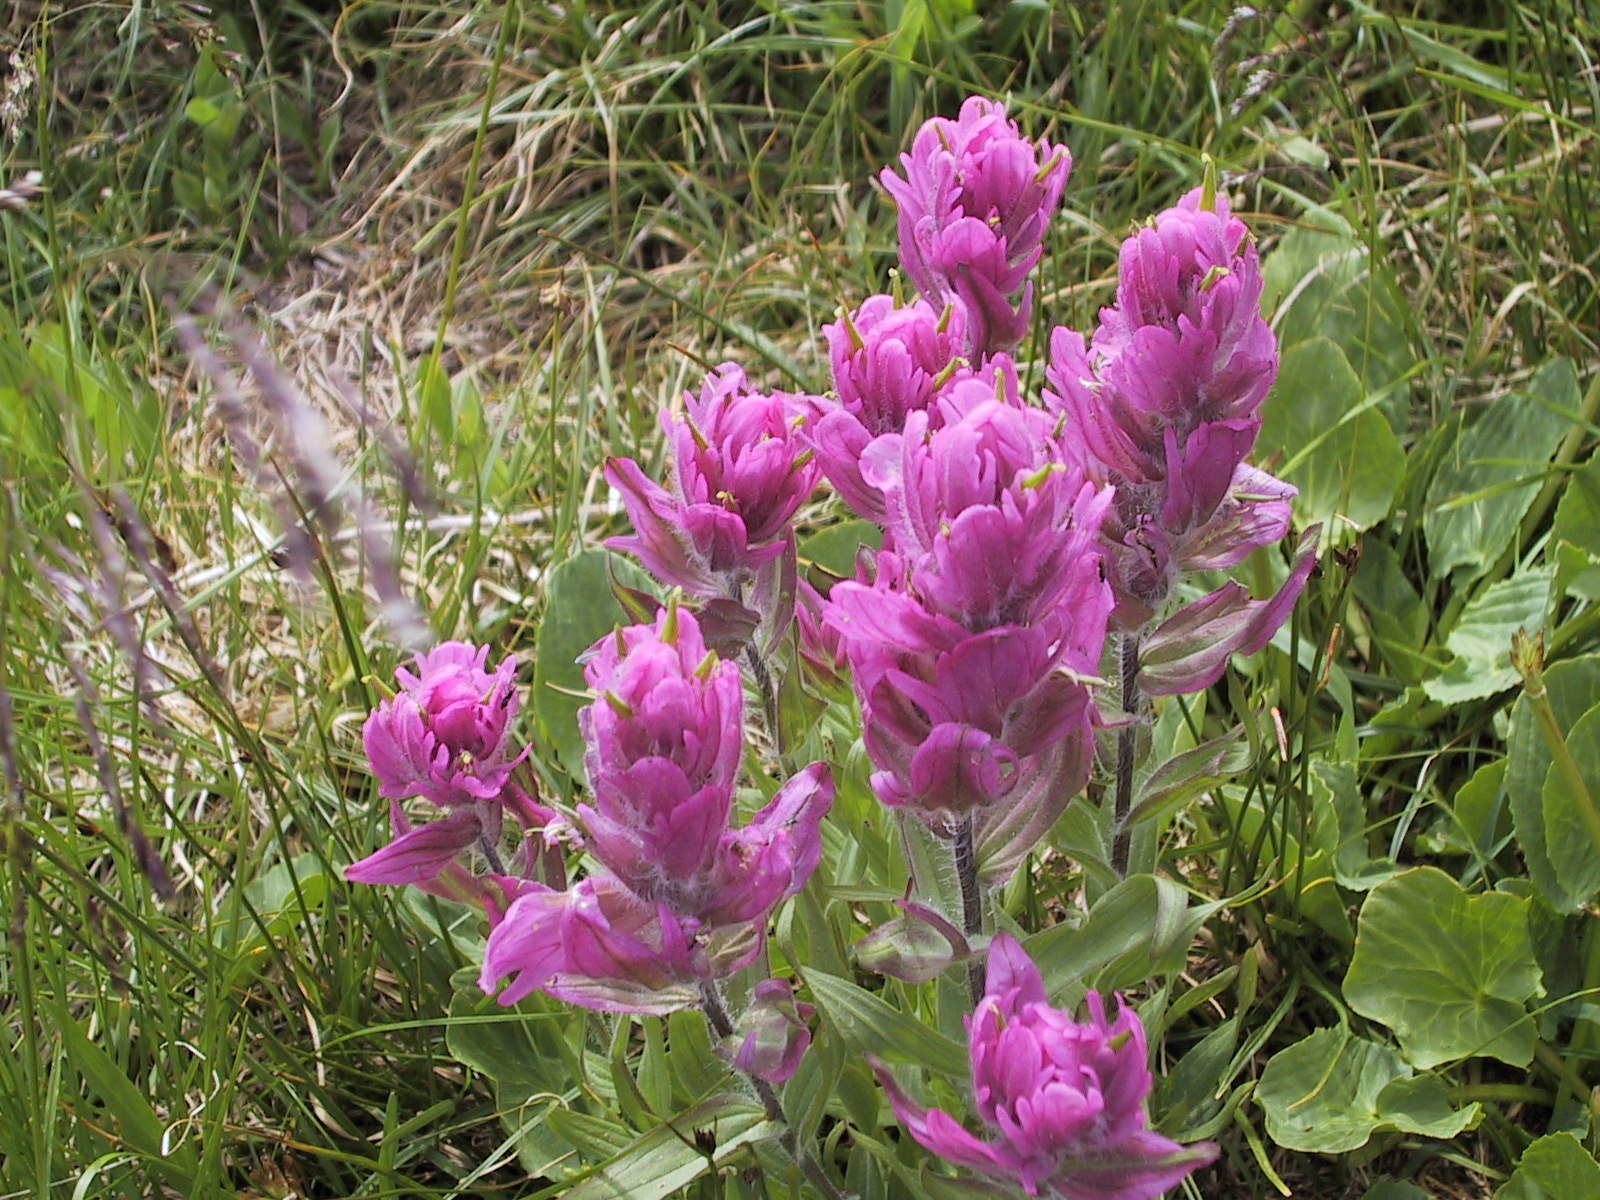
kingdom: Plantae
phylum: Tracheophyta
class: Magnoliopsida
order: Lamiales
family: Orobanchaceae
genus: Castilleja
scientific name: Castilleja rhexifolia
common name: Rocky mountain paintbrush
